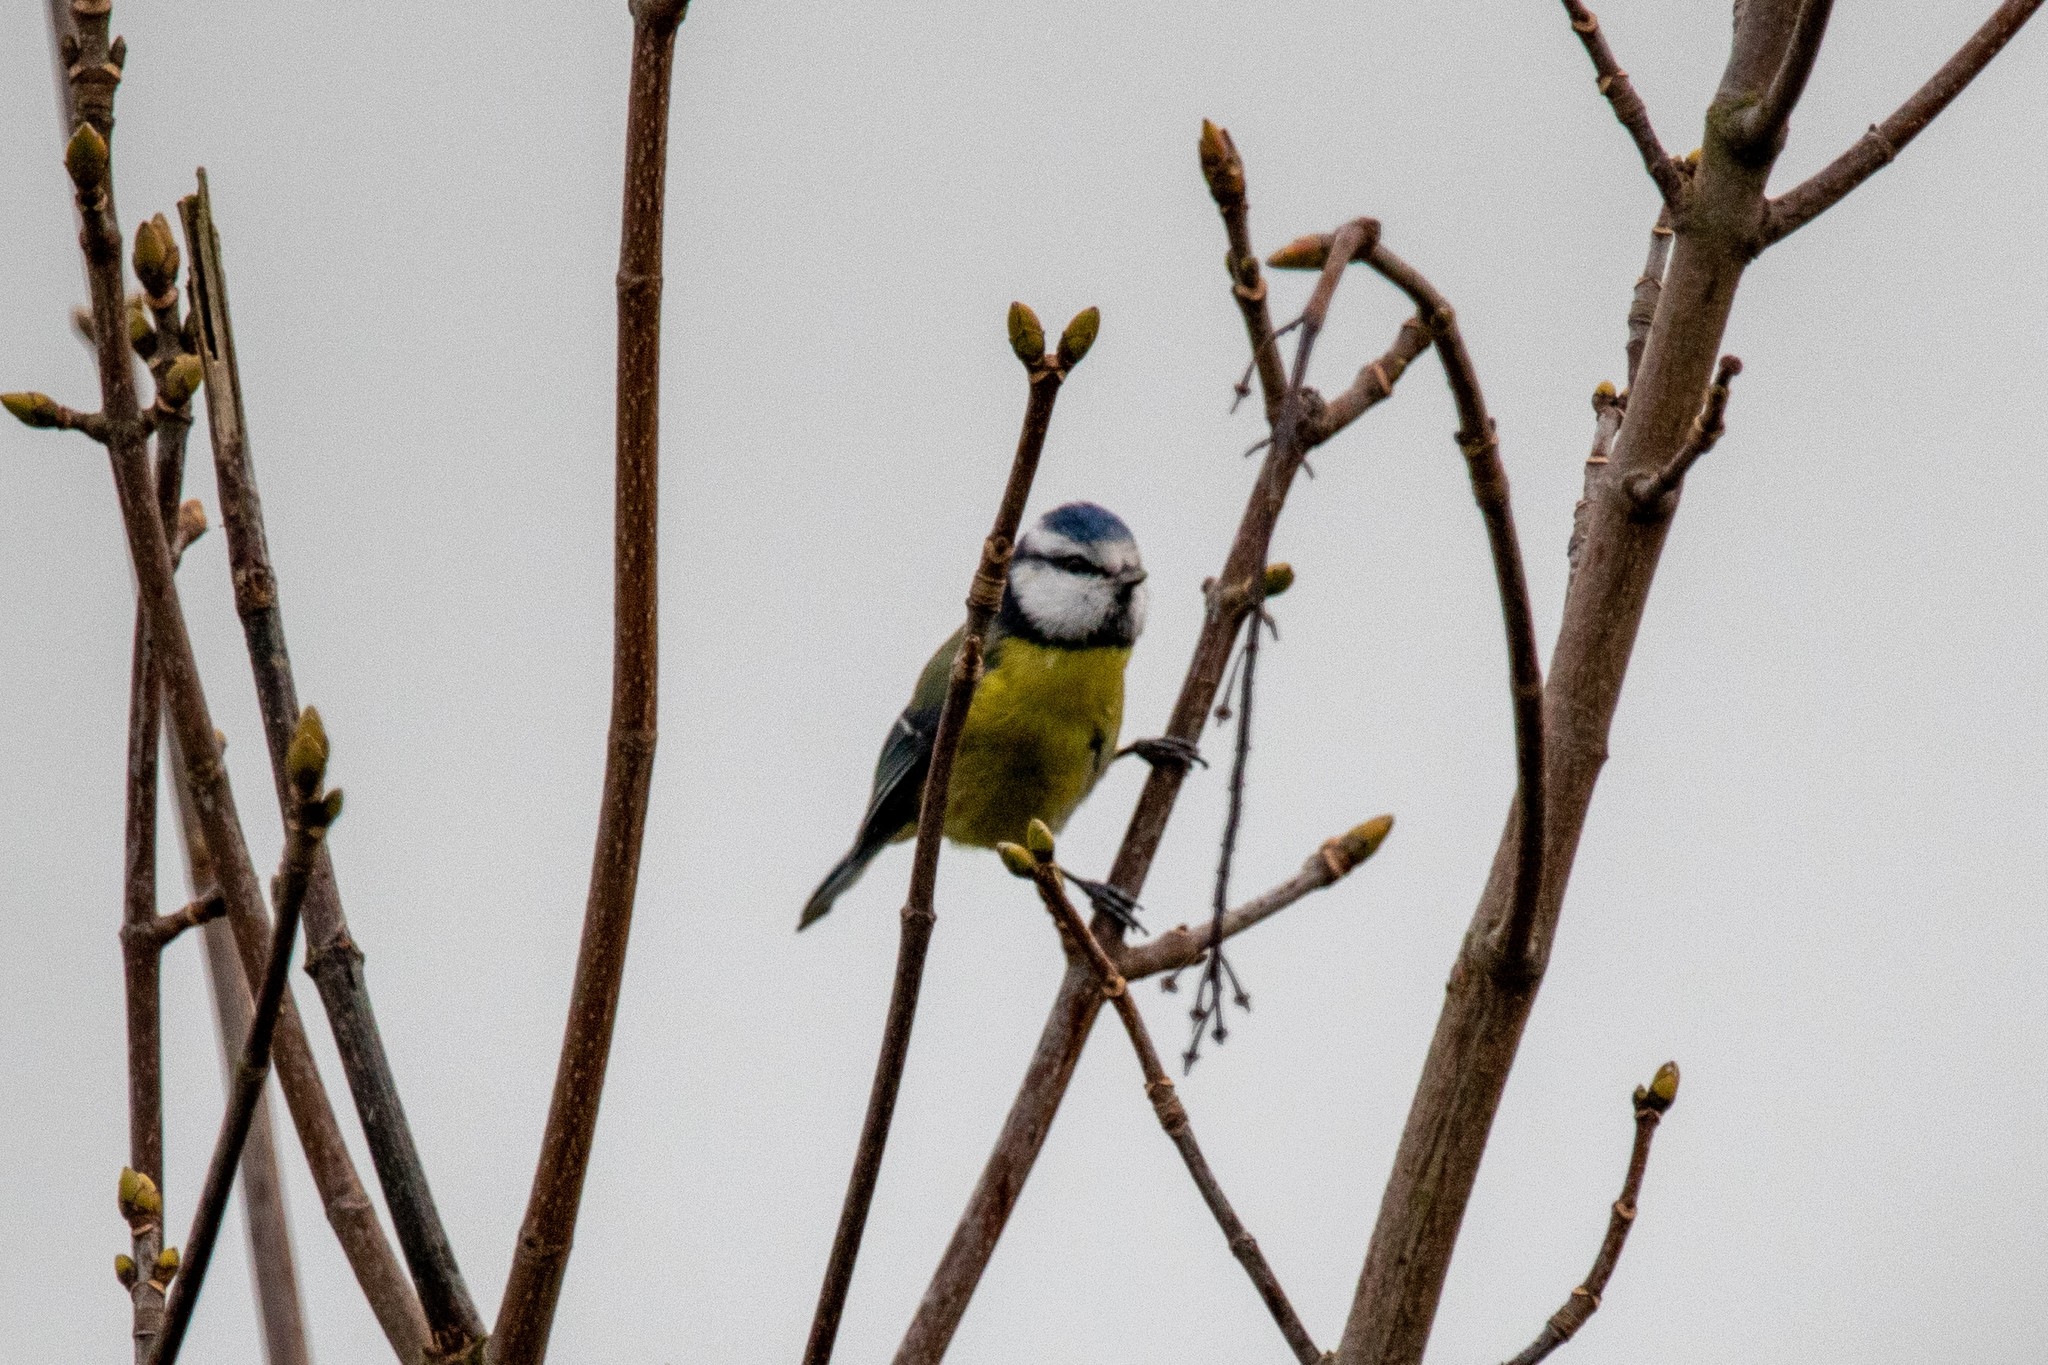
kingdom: Animalia
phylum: Chordata
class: Aves
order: Passeriformes
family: Paridae
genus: Cyanistes
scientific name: Cyanistes caeruleus
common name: Eurasian blue tit
